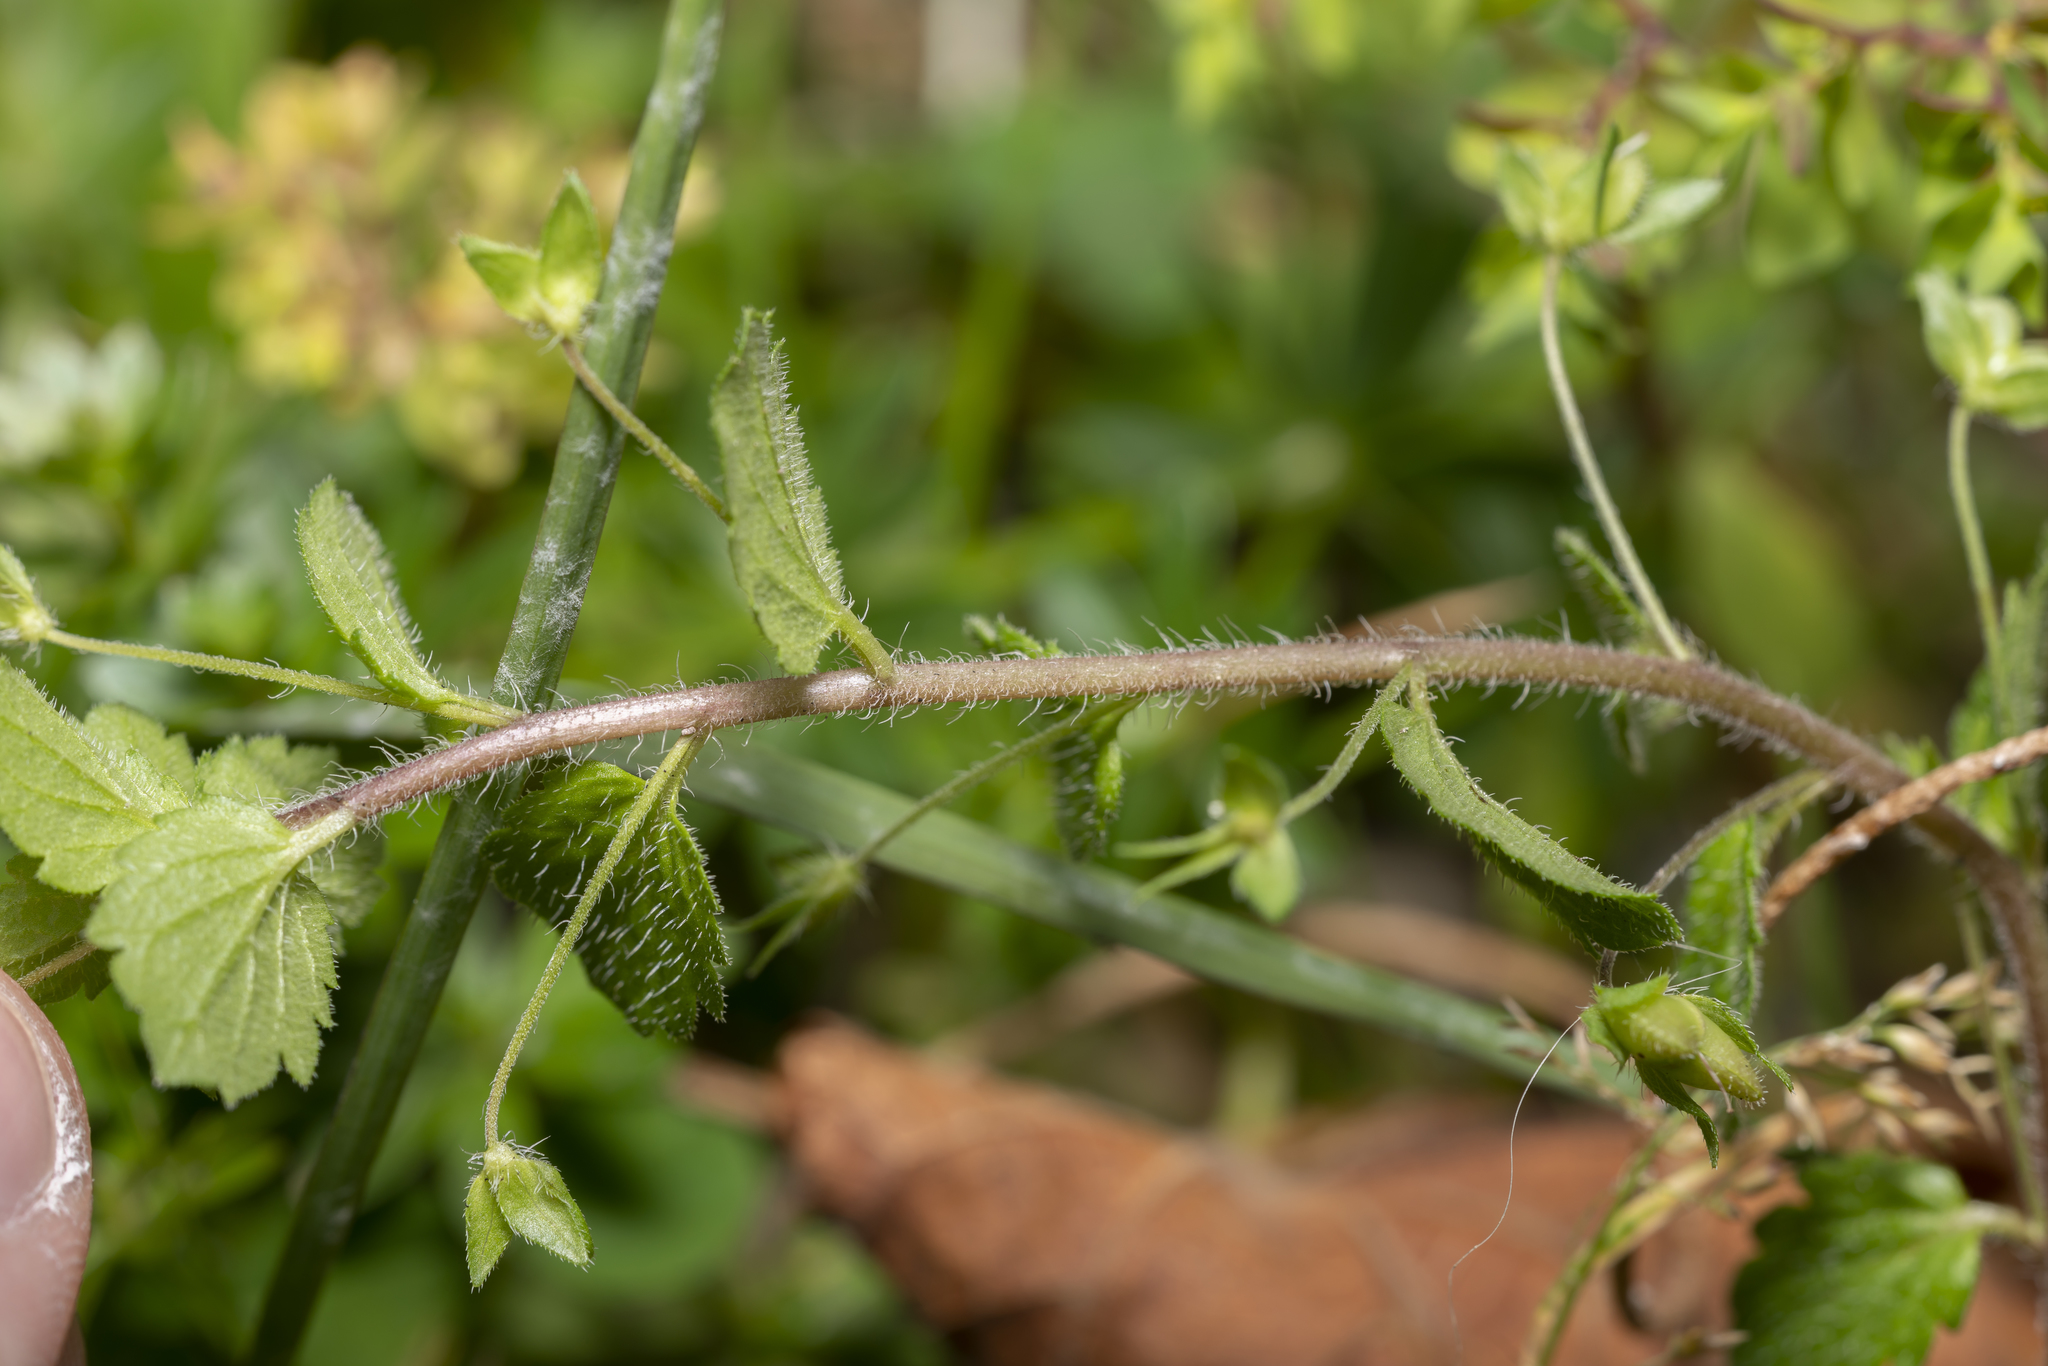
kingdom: Plantae
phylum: Tracheophyta
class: Magnoliopsida
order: Lamiales
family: Plantaginaceae
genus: Veronica
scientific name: Veronica persica
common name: Common field-speedwell
